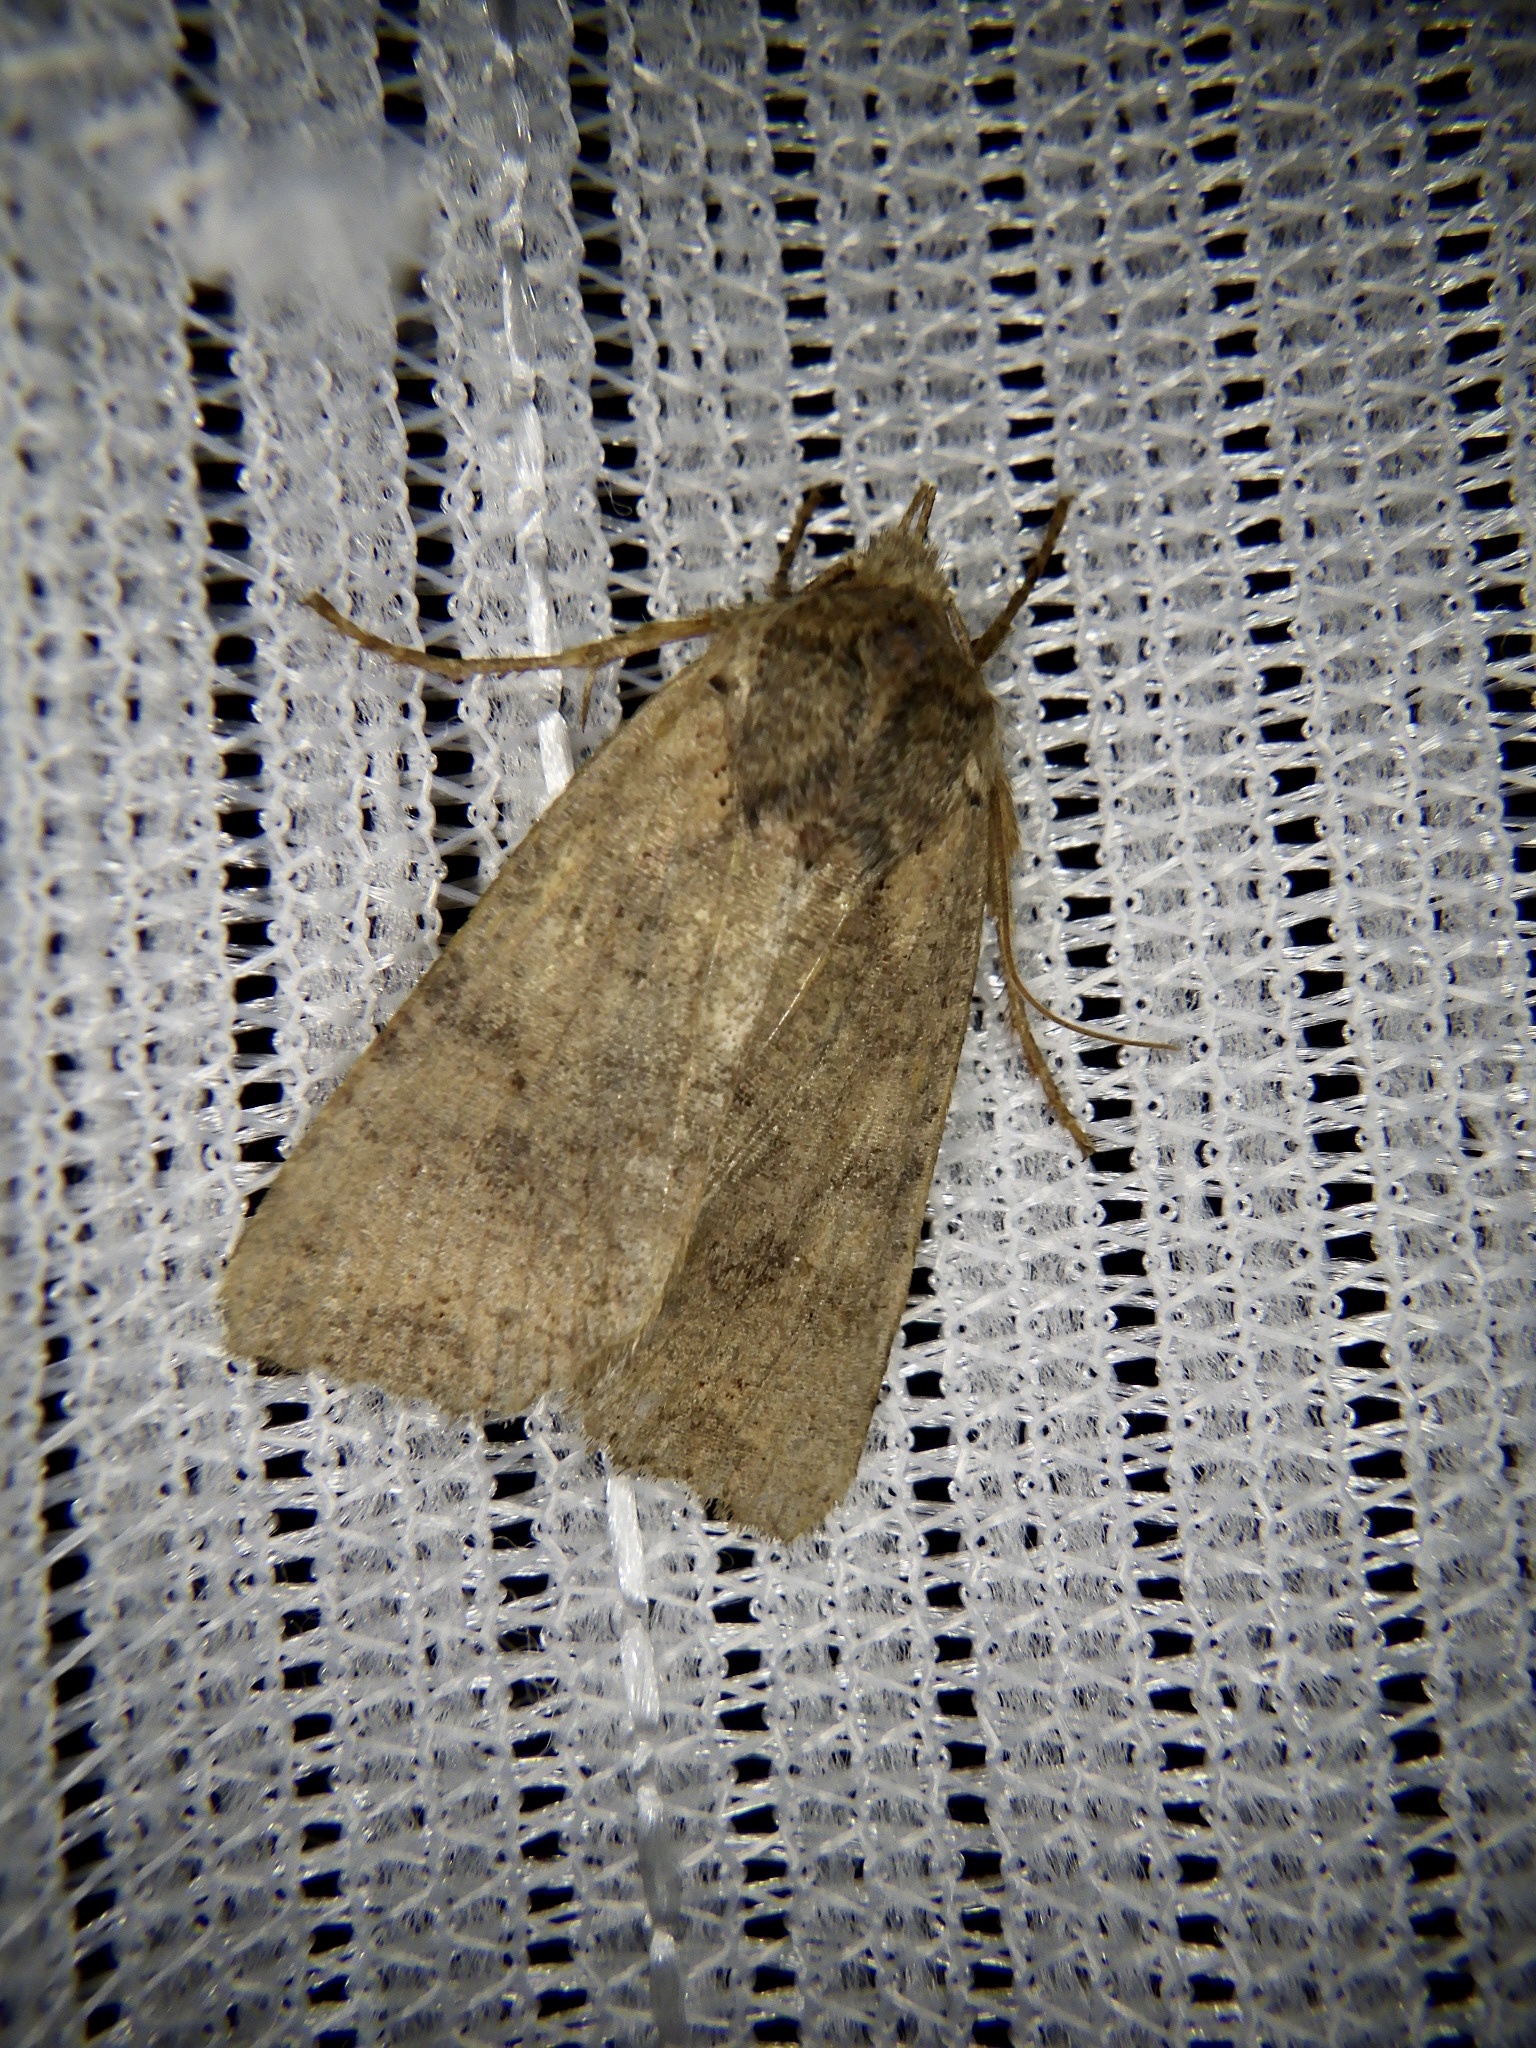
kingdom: Animalia
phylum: Arthropoda
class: Insecta
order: Lepidoptera
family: Noctuidae
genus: Rhynchaglaea
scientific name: Rhynchaglaea fuscipennis
